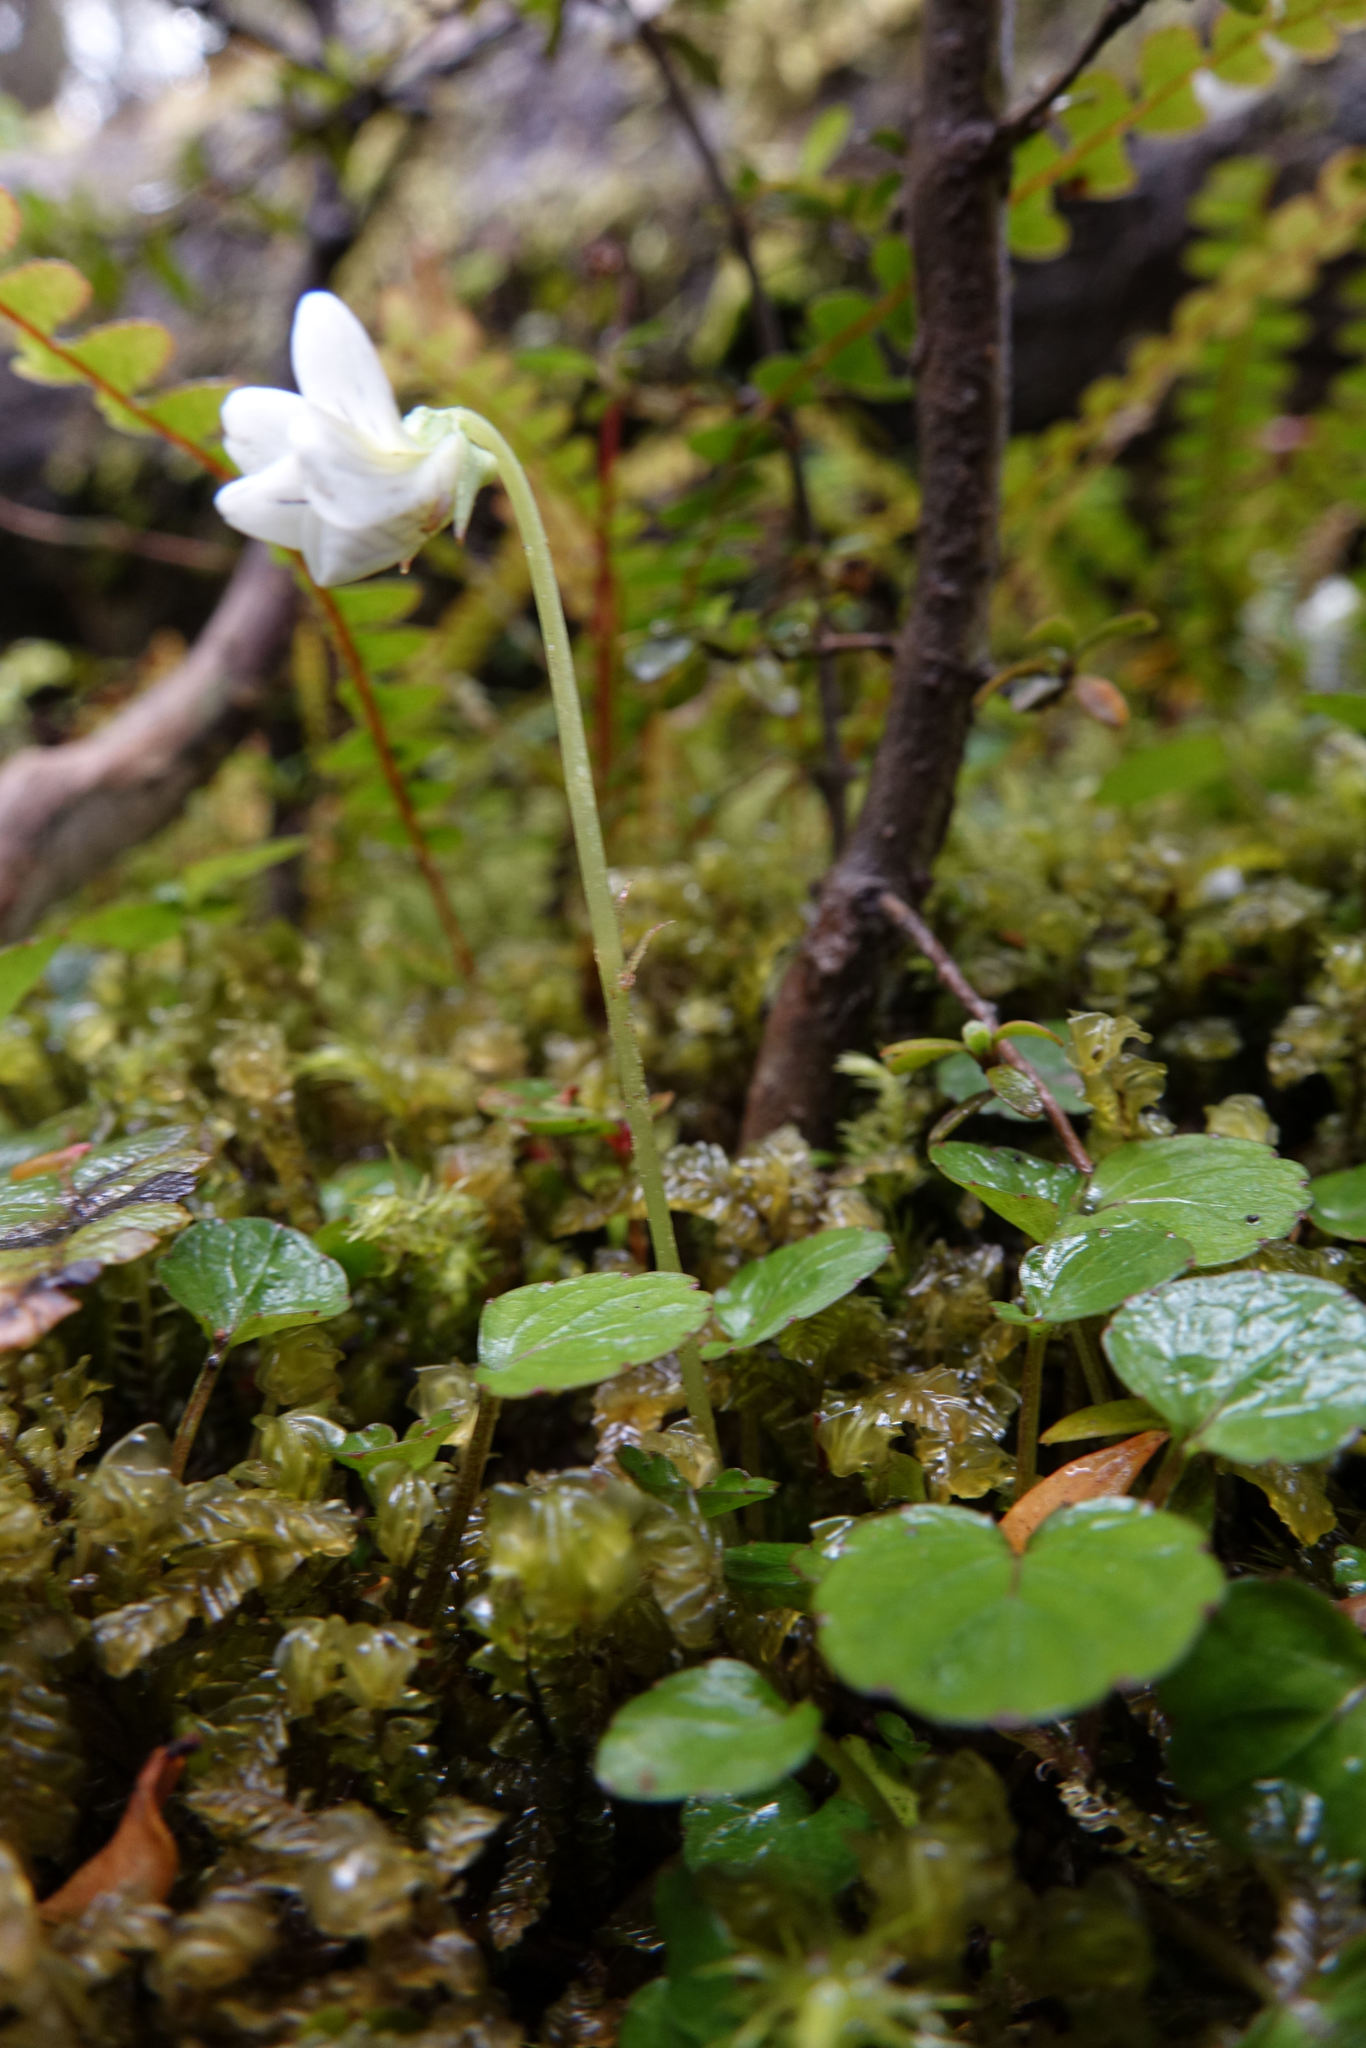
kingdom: Plantae
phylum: Tracheophyta
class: Magnoliopsida
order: Malpighiales
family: Violaceae
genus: Viola
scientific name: Viola filicaulis
